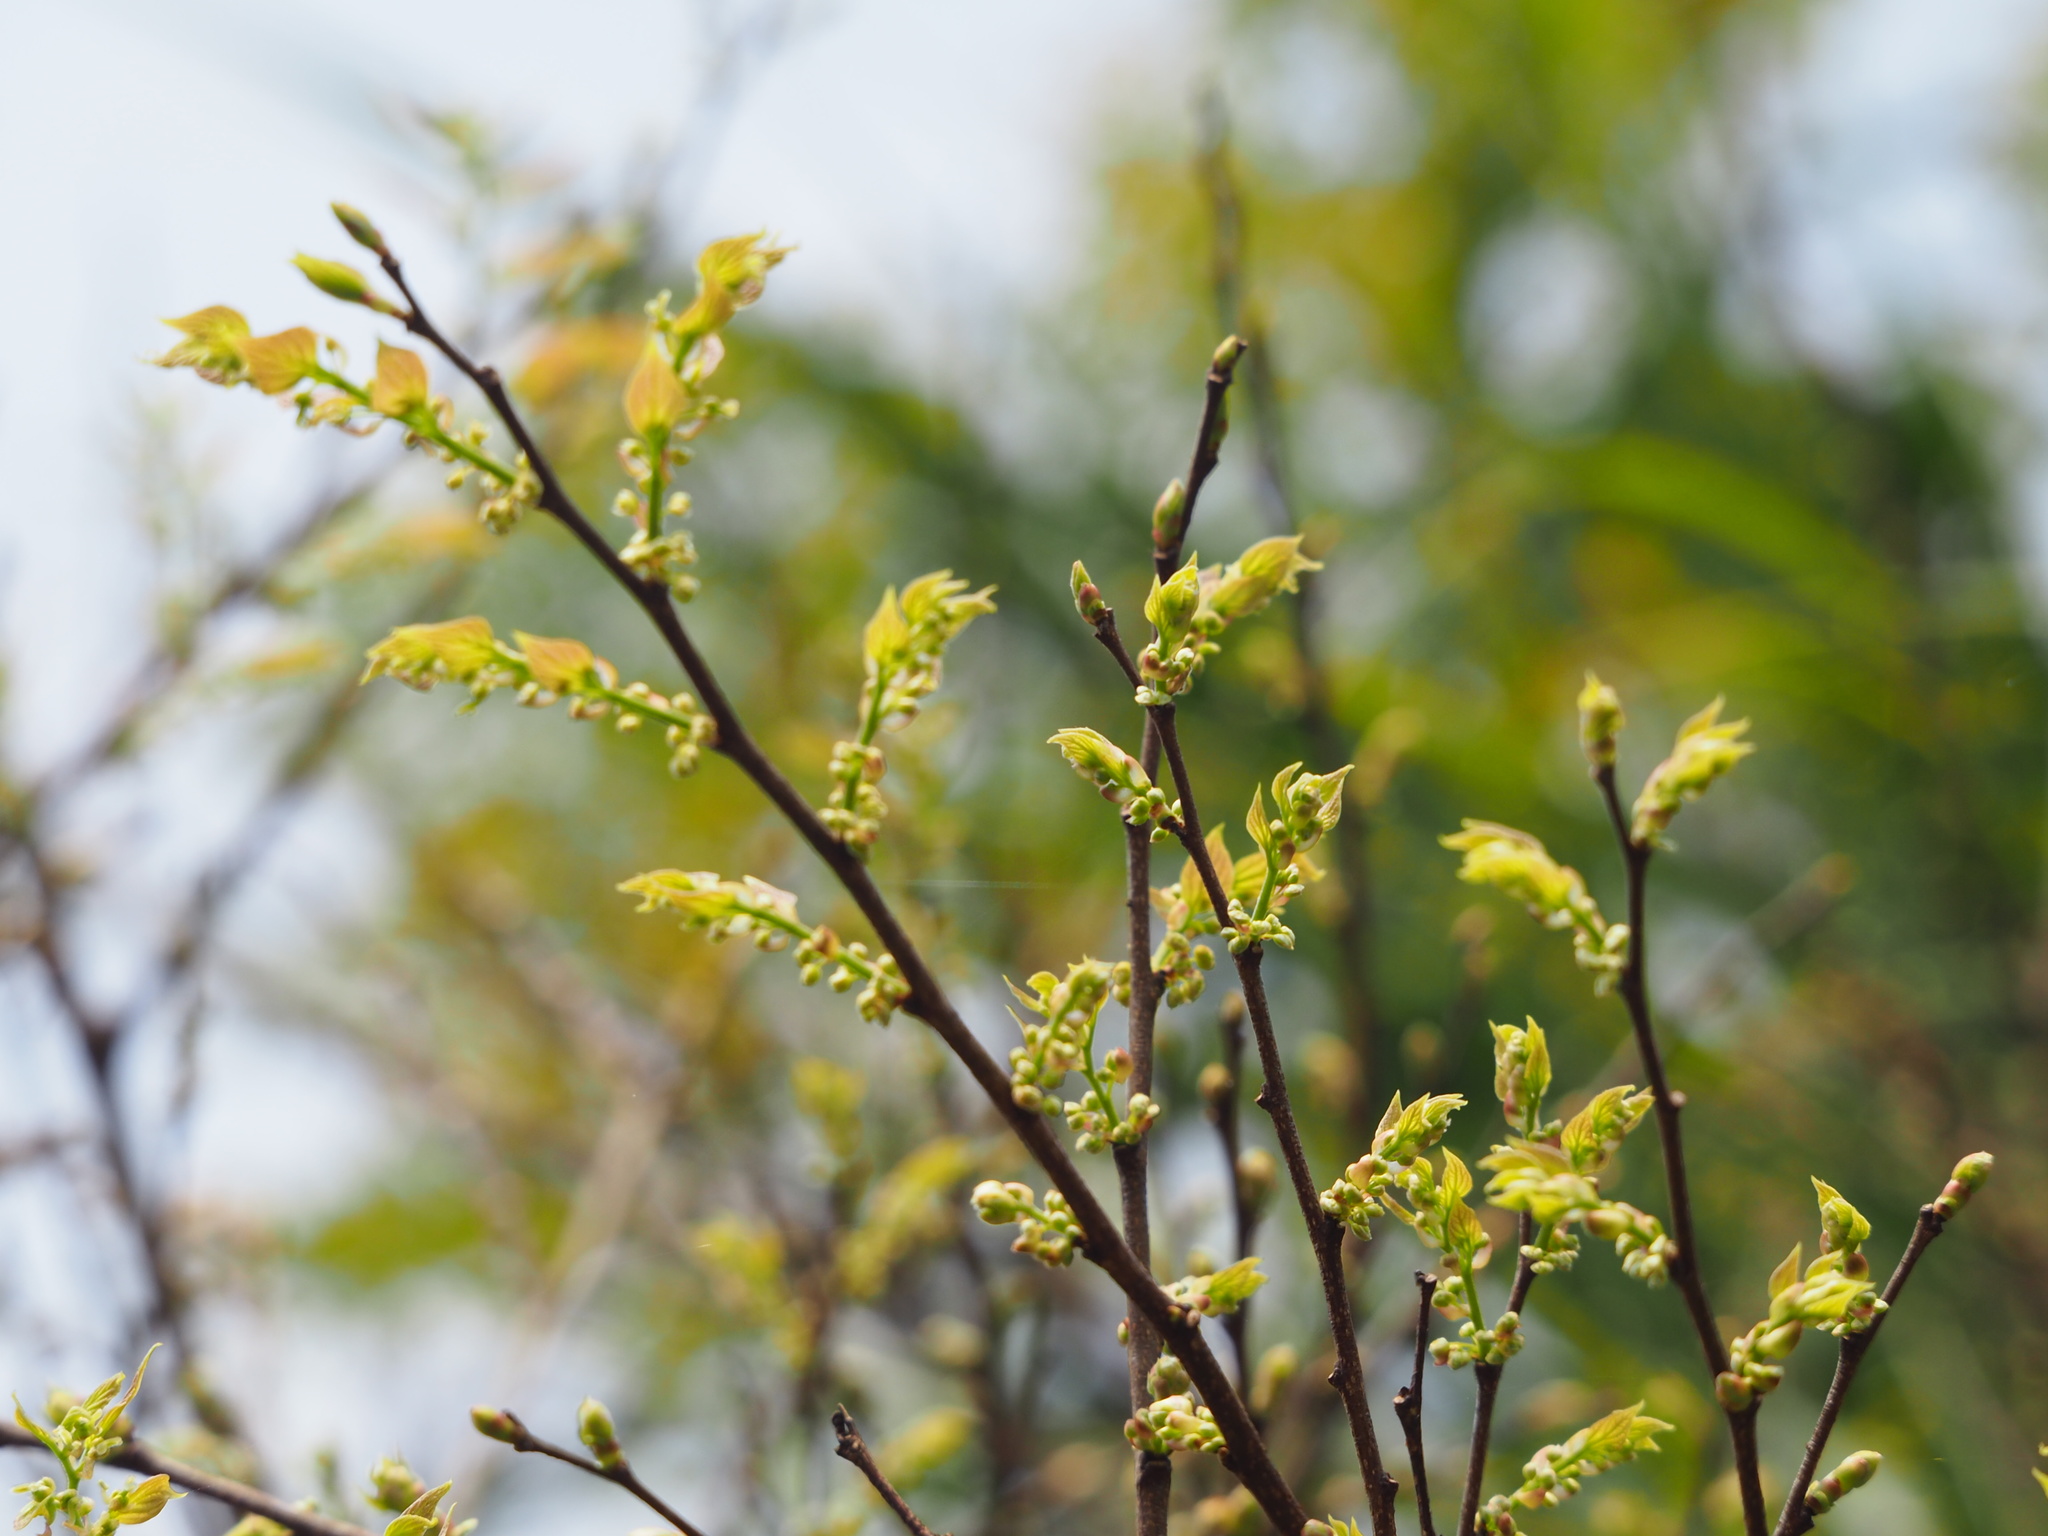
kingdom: Plantae
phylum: Tracheophyta
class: Magnoliopsida
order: Rosales
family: Cannabaceae
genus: Celtis
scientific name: Celtis sinensis
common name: Chinese hackberry
